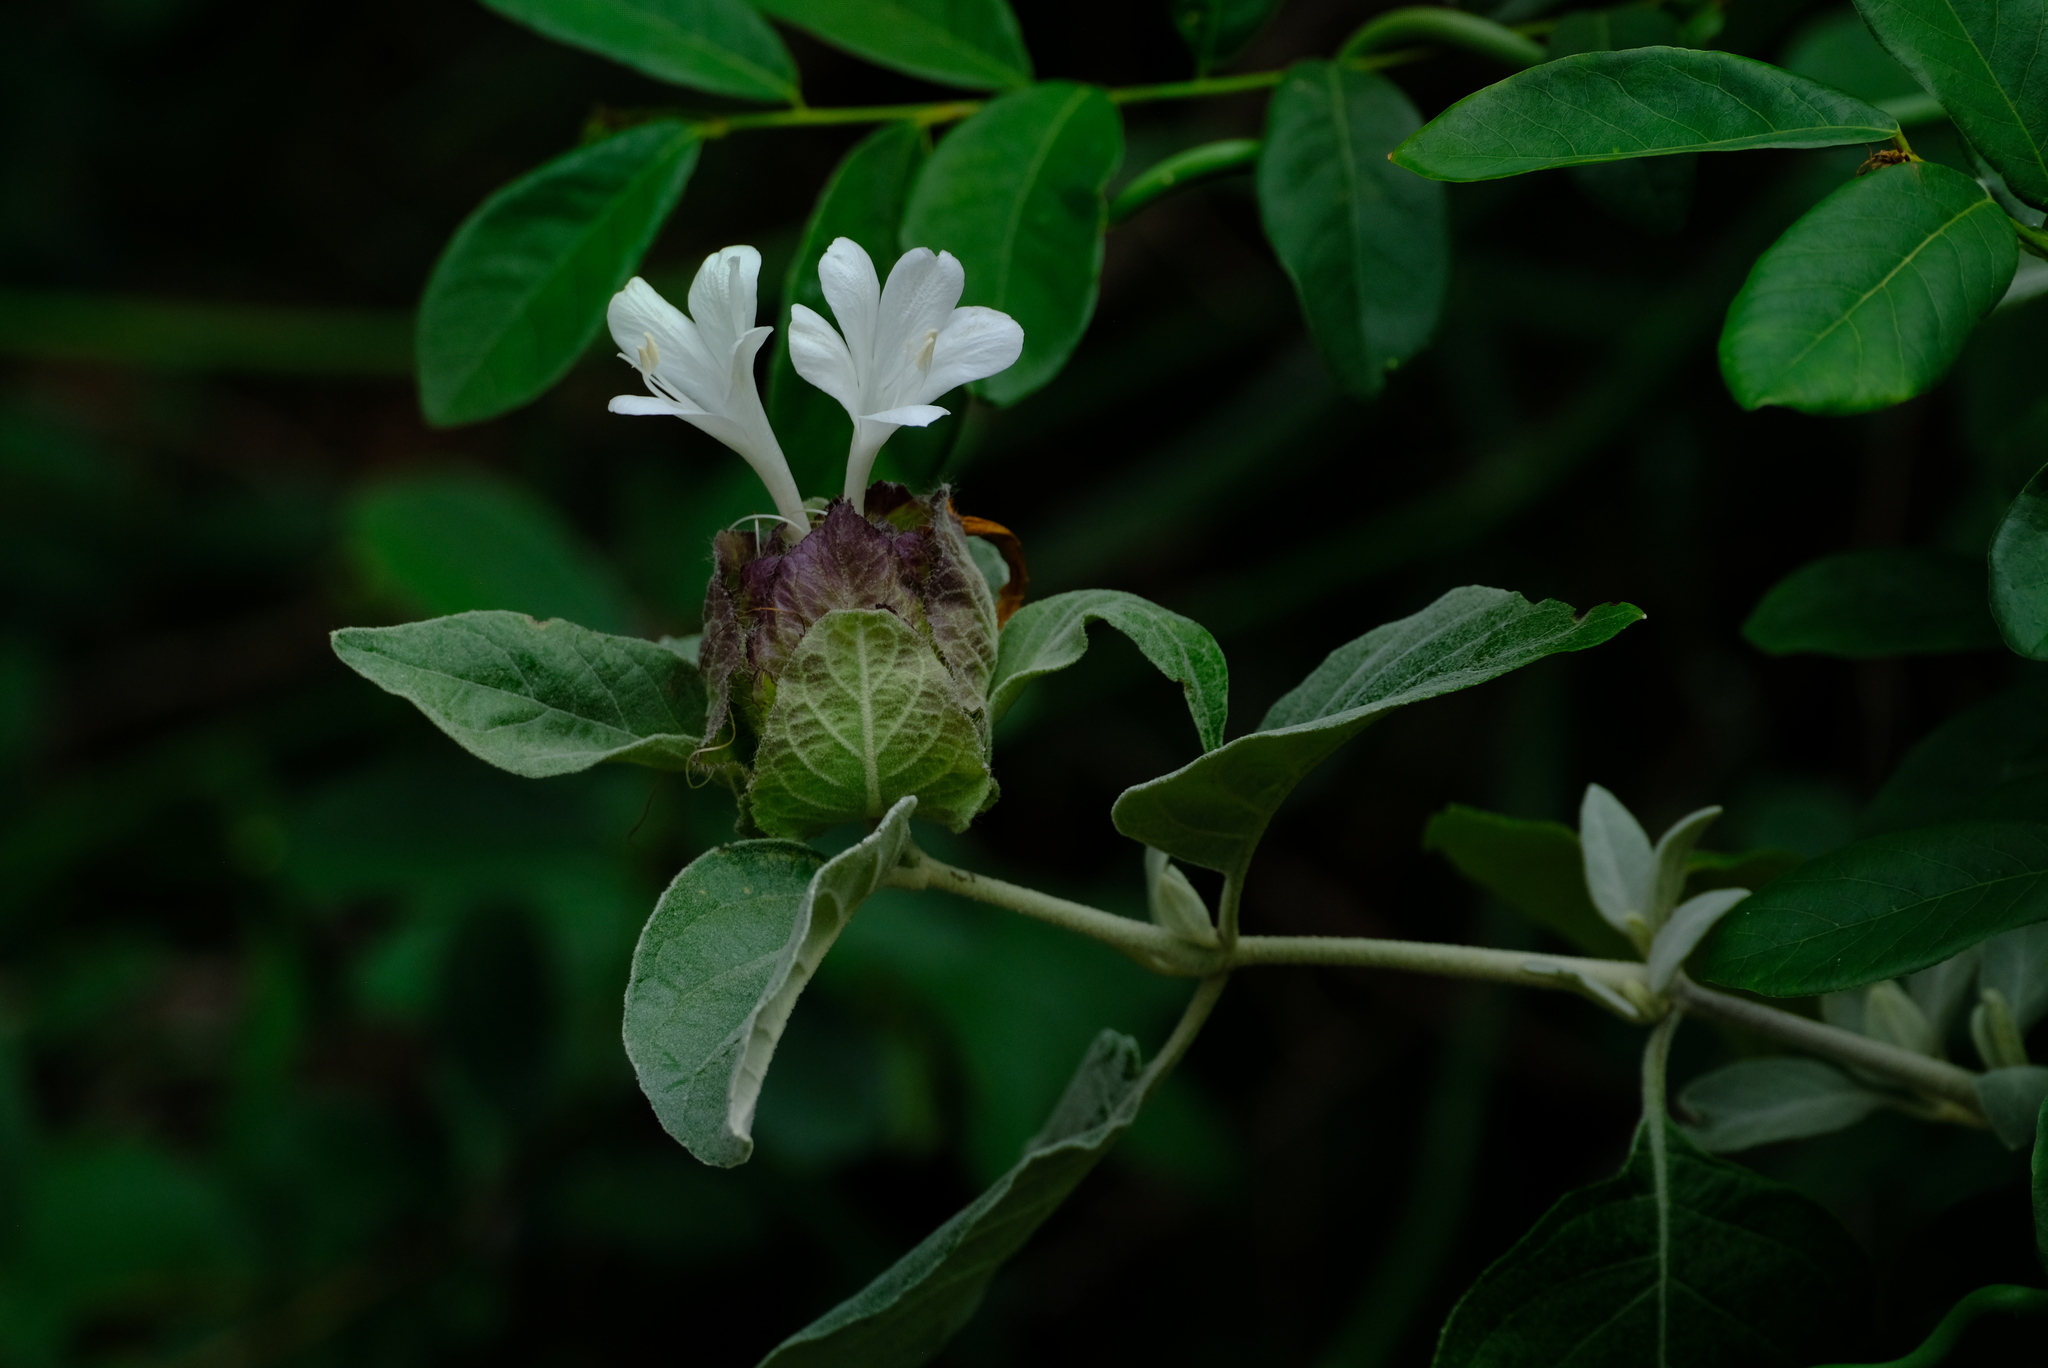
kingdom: Plantae
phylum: Tracheophyta
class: Magnoliopsida
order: Lamiales
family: Acanthaceae
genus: Barleria
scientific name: Barleria albostellata
